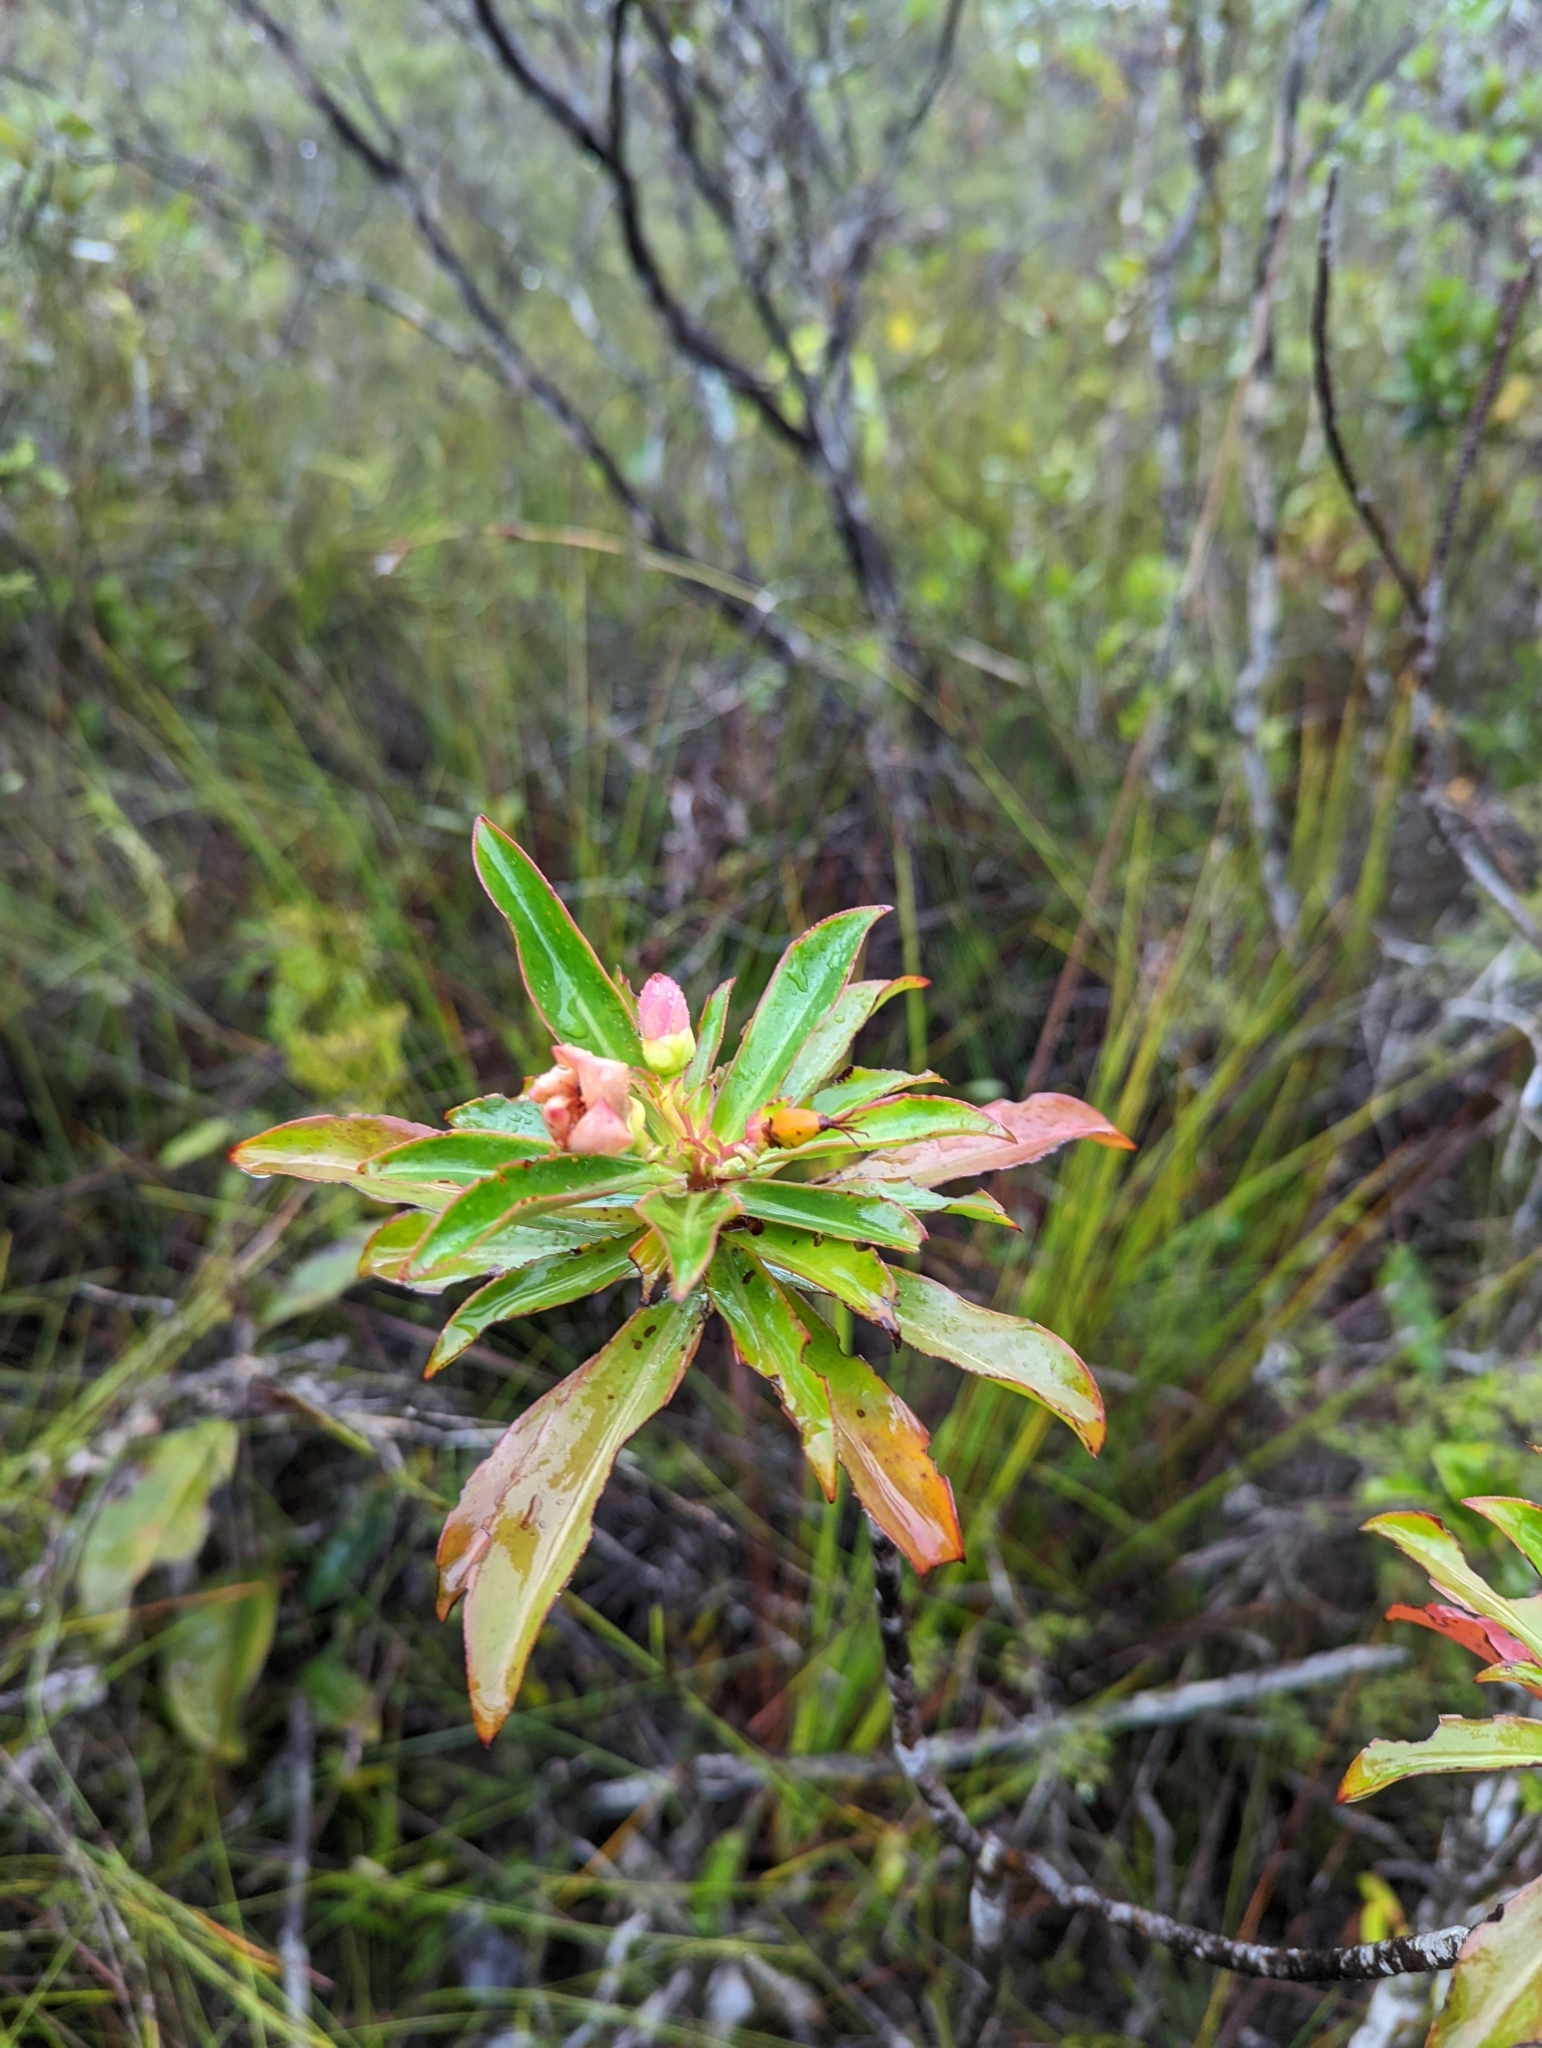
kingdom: Plantae
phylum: Tracheophyta
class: Magnoliopsida
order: Malpighiales
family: Bonnetiaceae
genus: Ploiarium
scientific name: Ploiarium elegans
